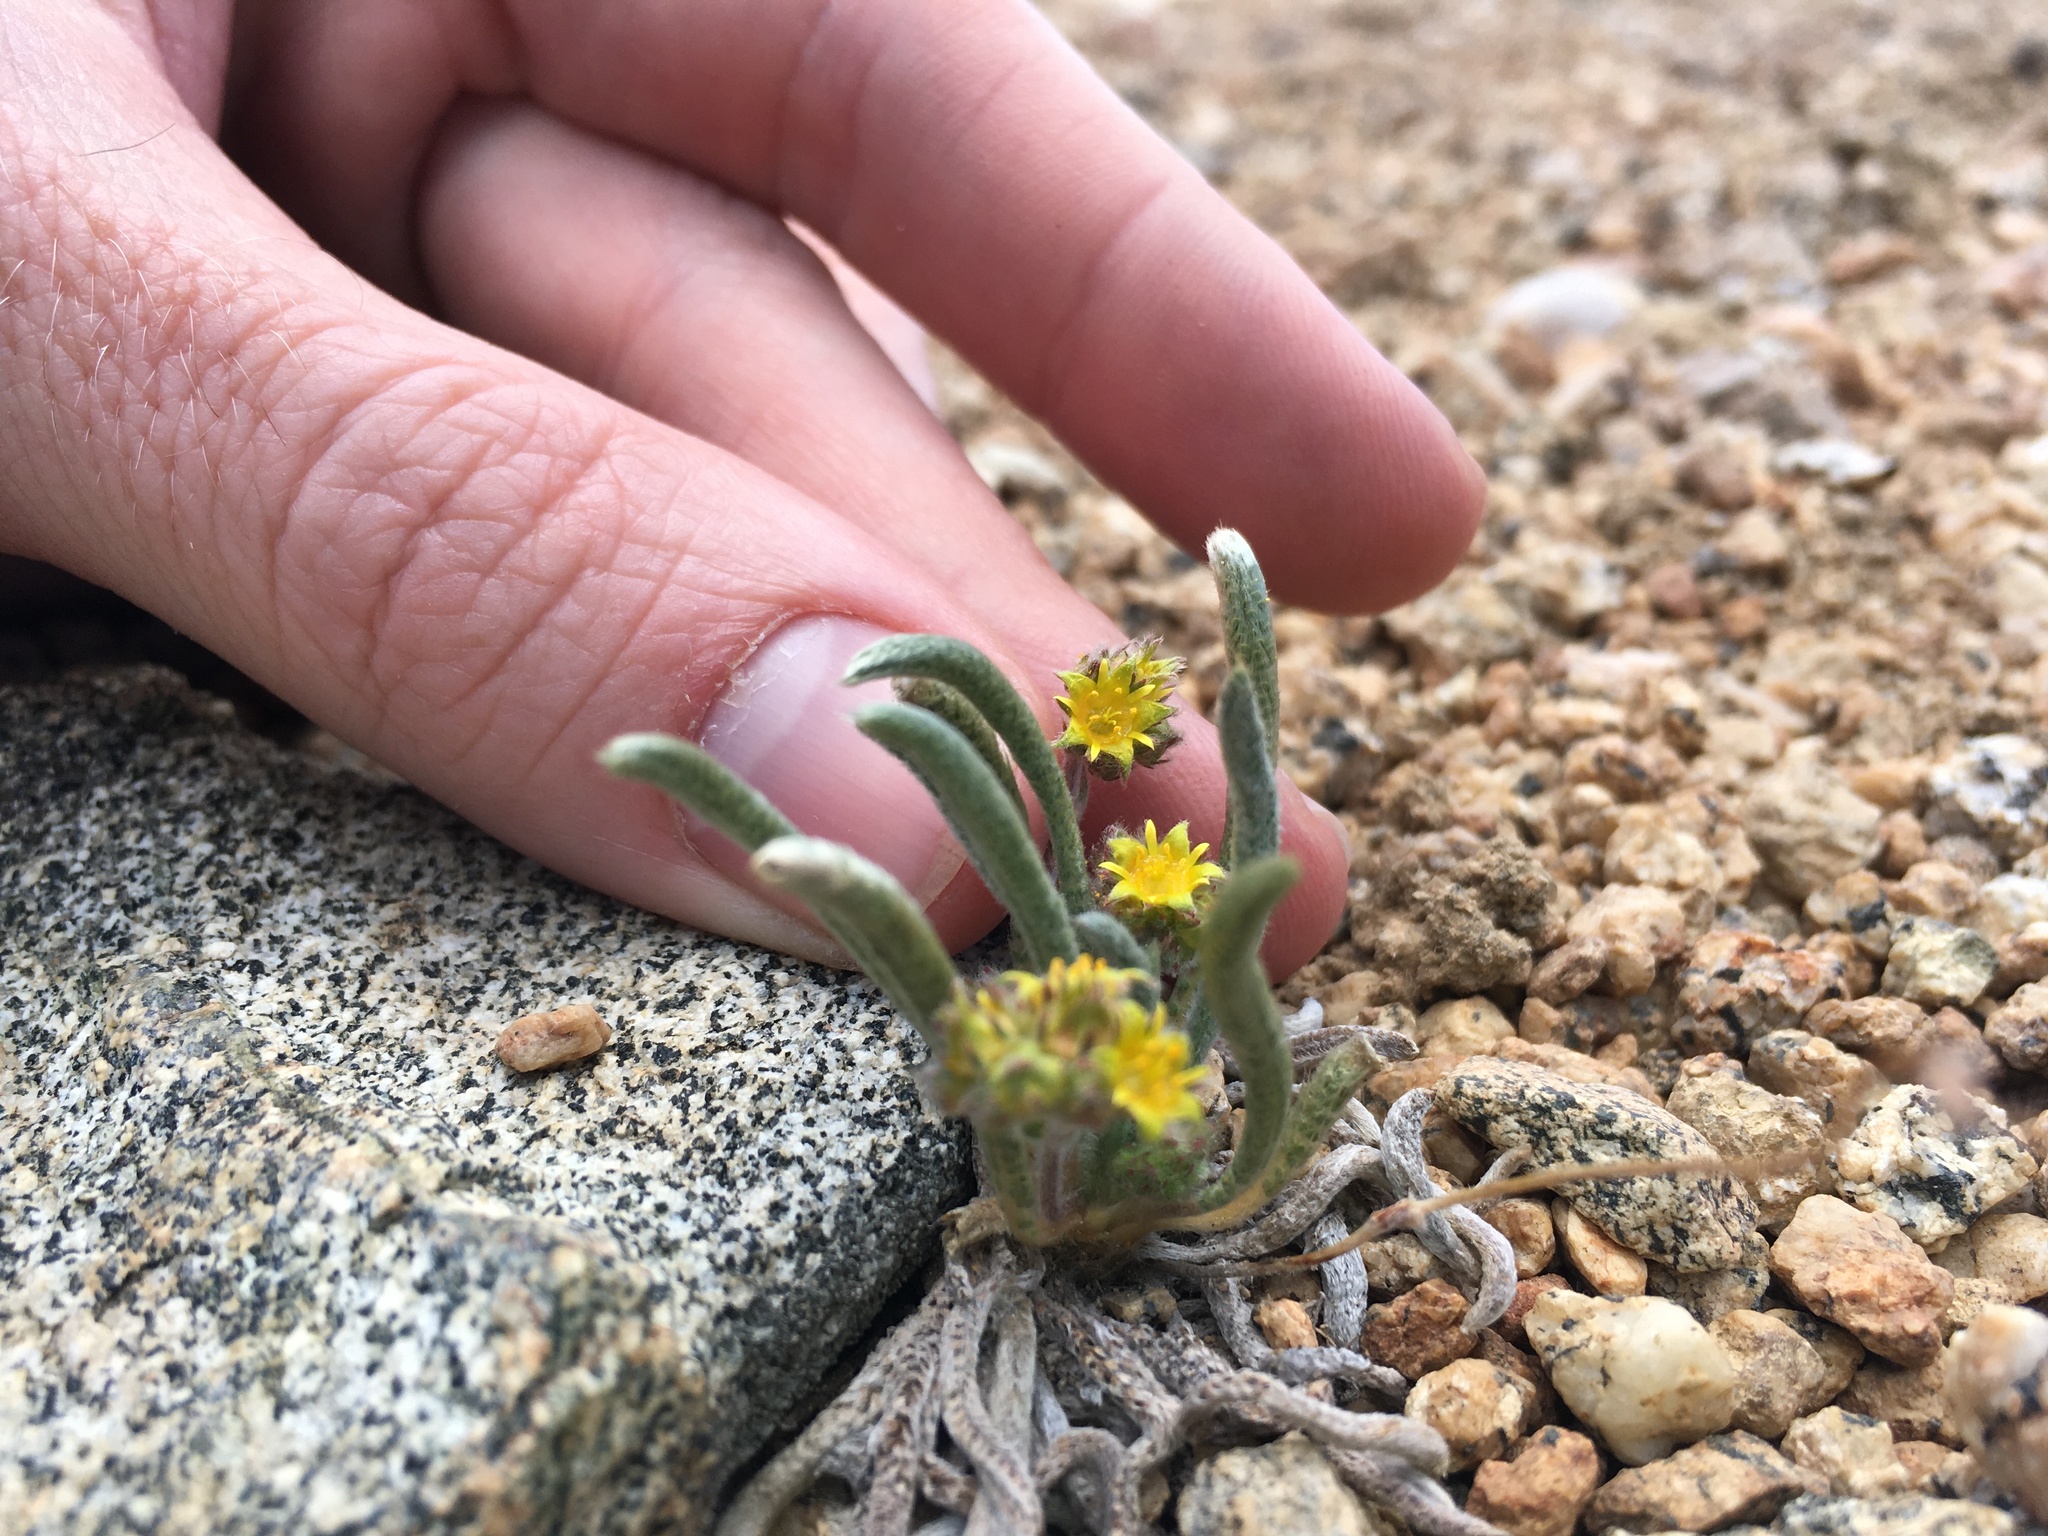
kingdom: Plantae
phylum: Tracheophyta
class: Magnoliopsida
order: Rosales
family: Rosaceae
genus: Potentilla
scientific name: Potentilla muirii
